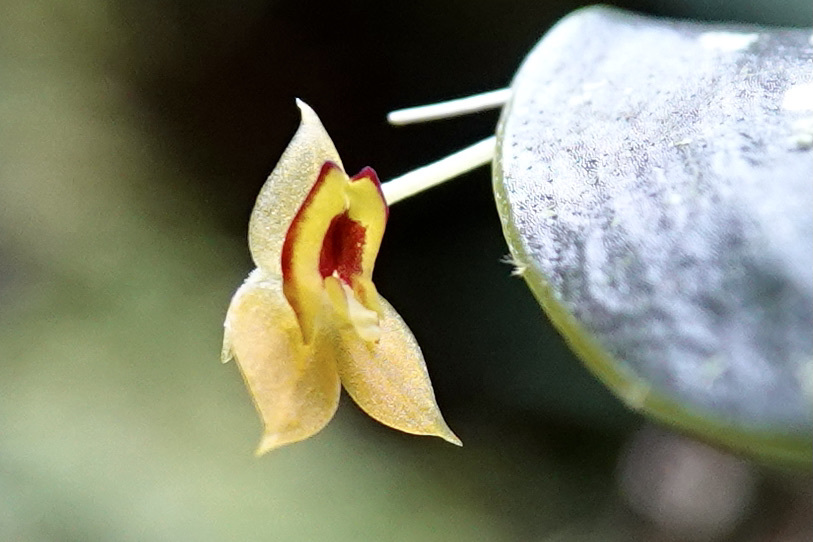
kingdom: Plantae
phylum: Tracheophyta
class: Liliopsida
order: Asparagales
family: Orchidaceae
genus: Lepanthes
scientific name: Lepanthes anatina
